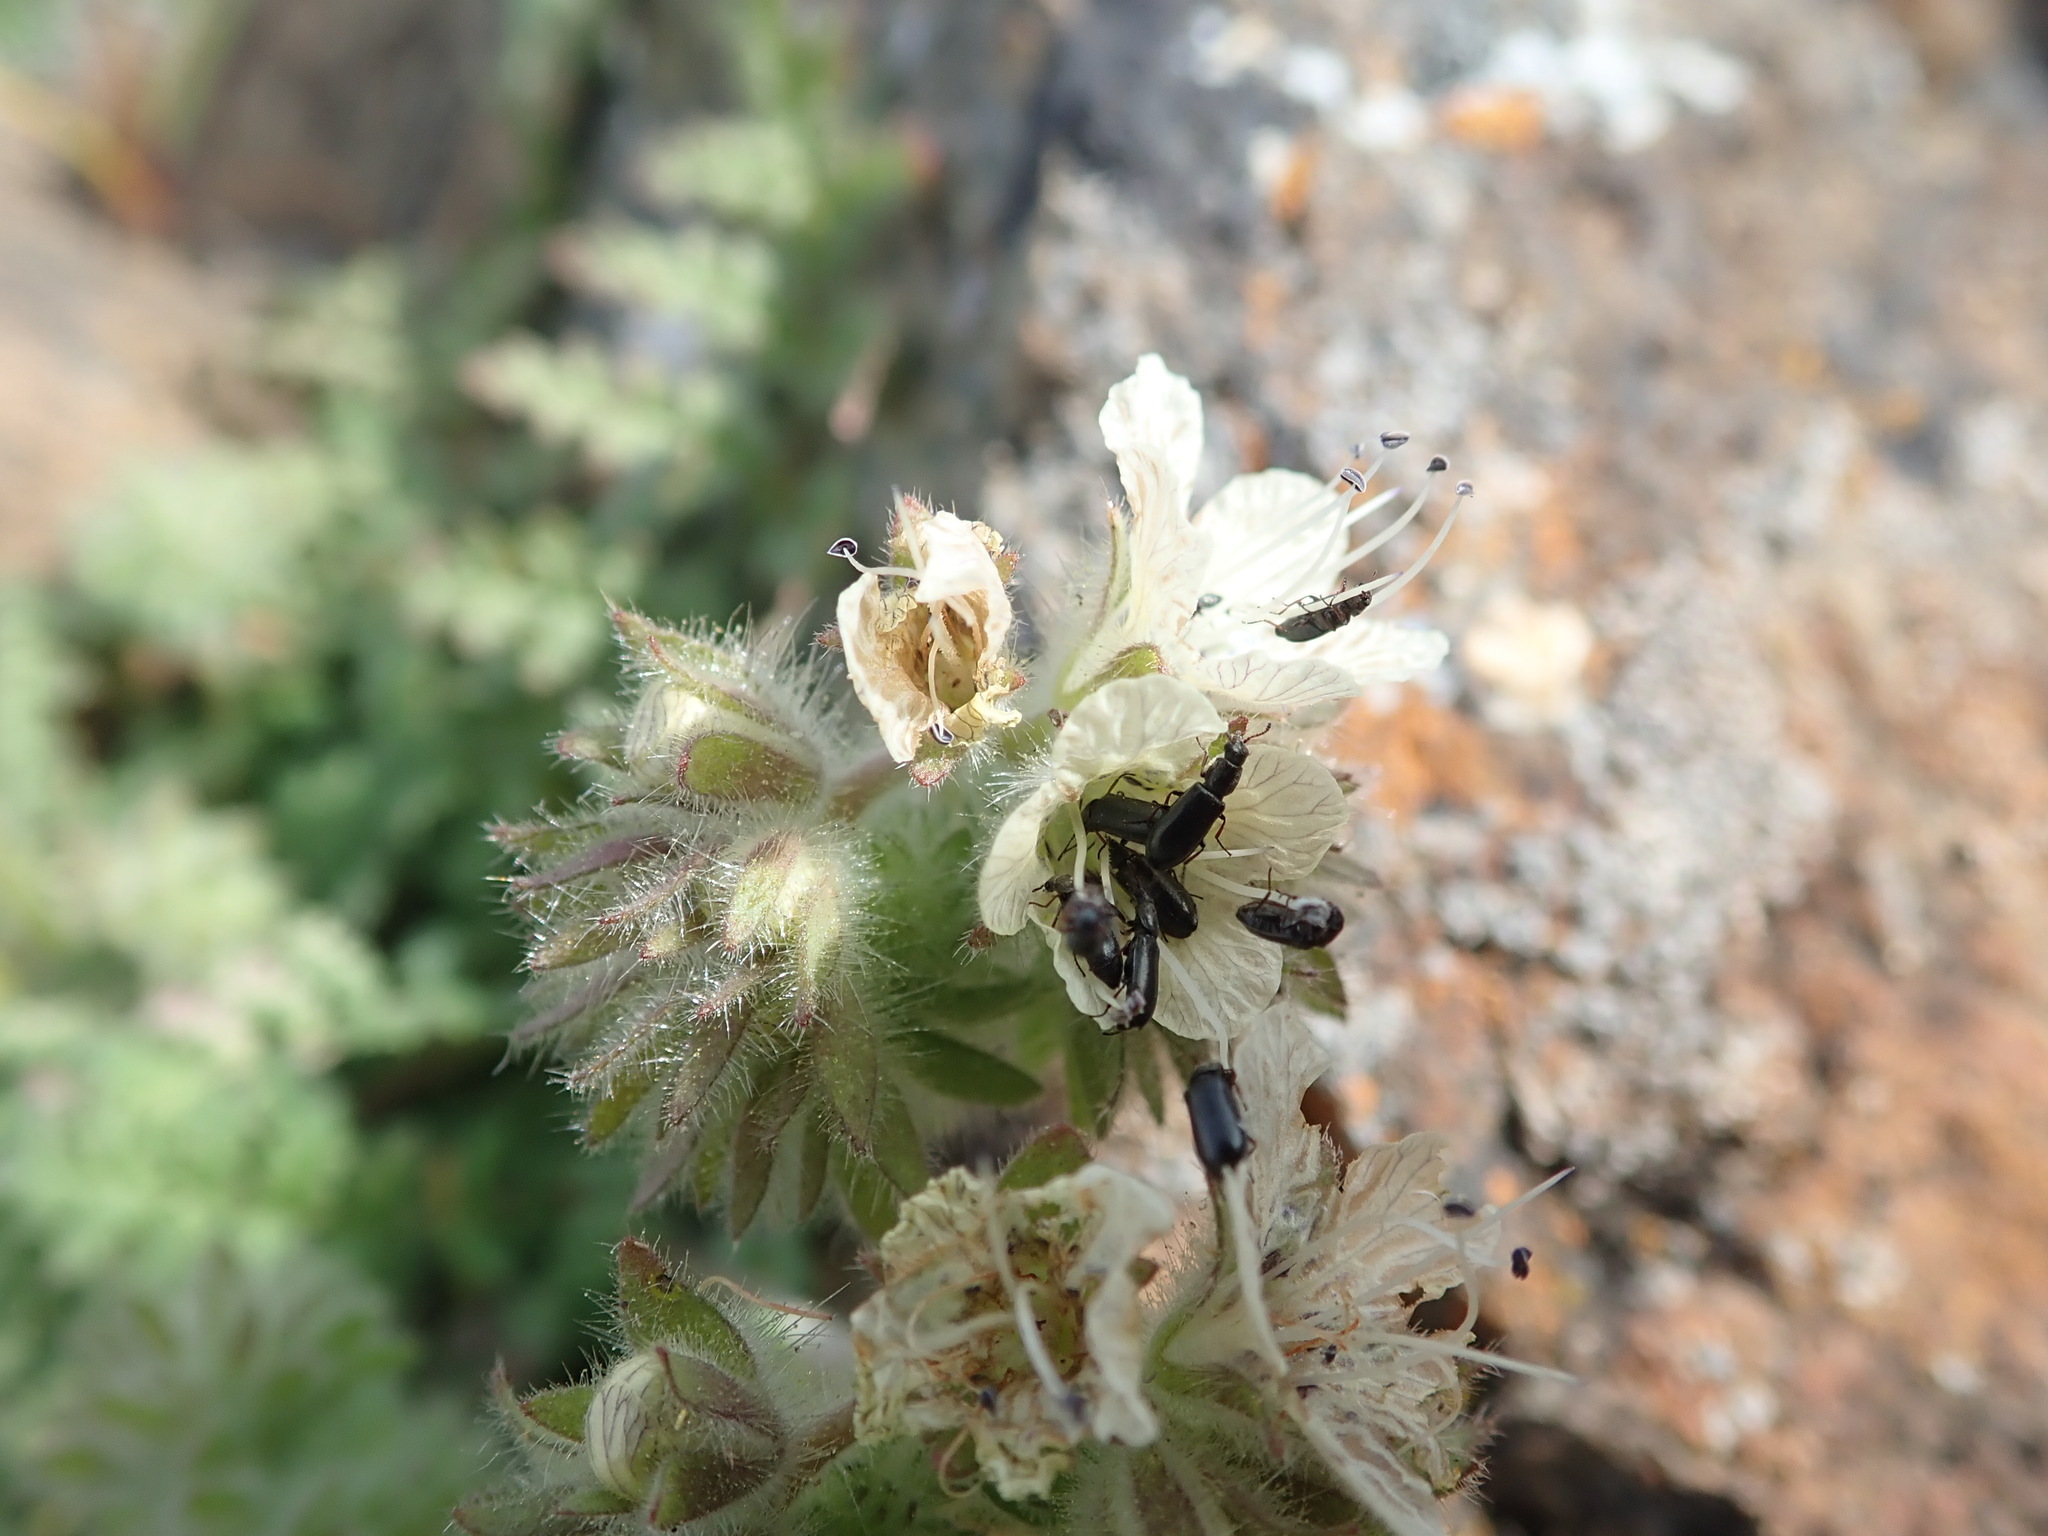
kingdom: Plantae
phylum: Tracheophyta
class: Magnoliopsida
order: Boraginales
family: Hydrophyllaceae
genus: Phacelia
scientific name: Phacelia distans
